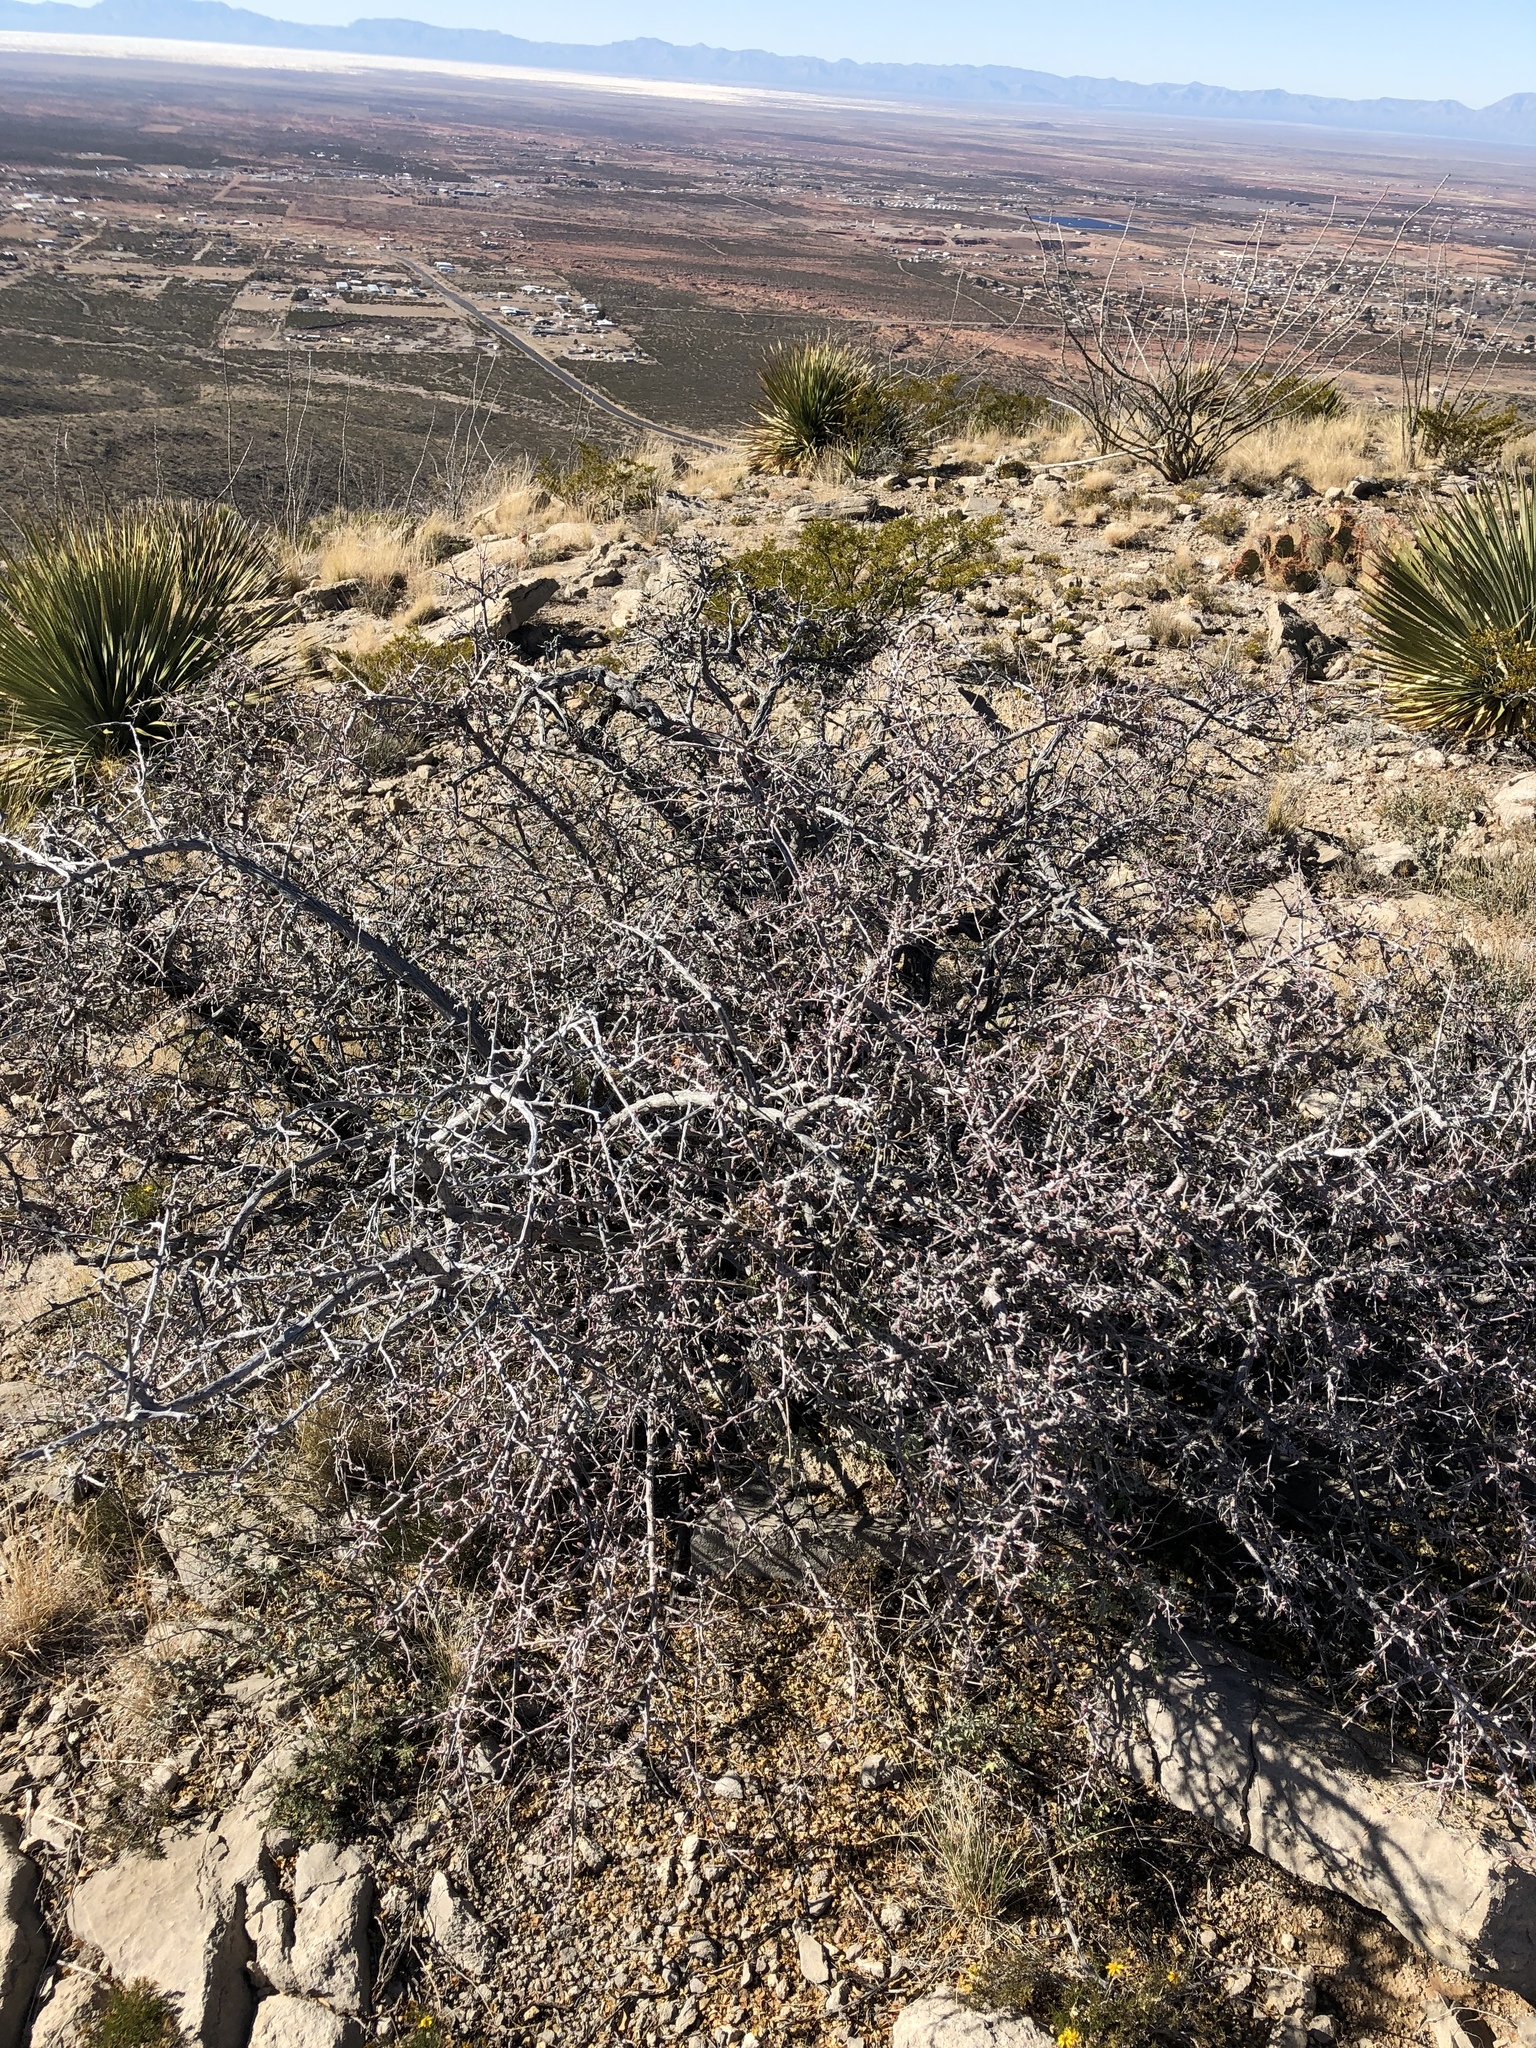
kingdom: Plantae
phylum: Tracheophyta
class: Magnoliopsida
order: Sapindales
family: Anacardiaceae
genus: Rhus
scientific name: Rhus microphylla
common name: Desert sumac
